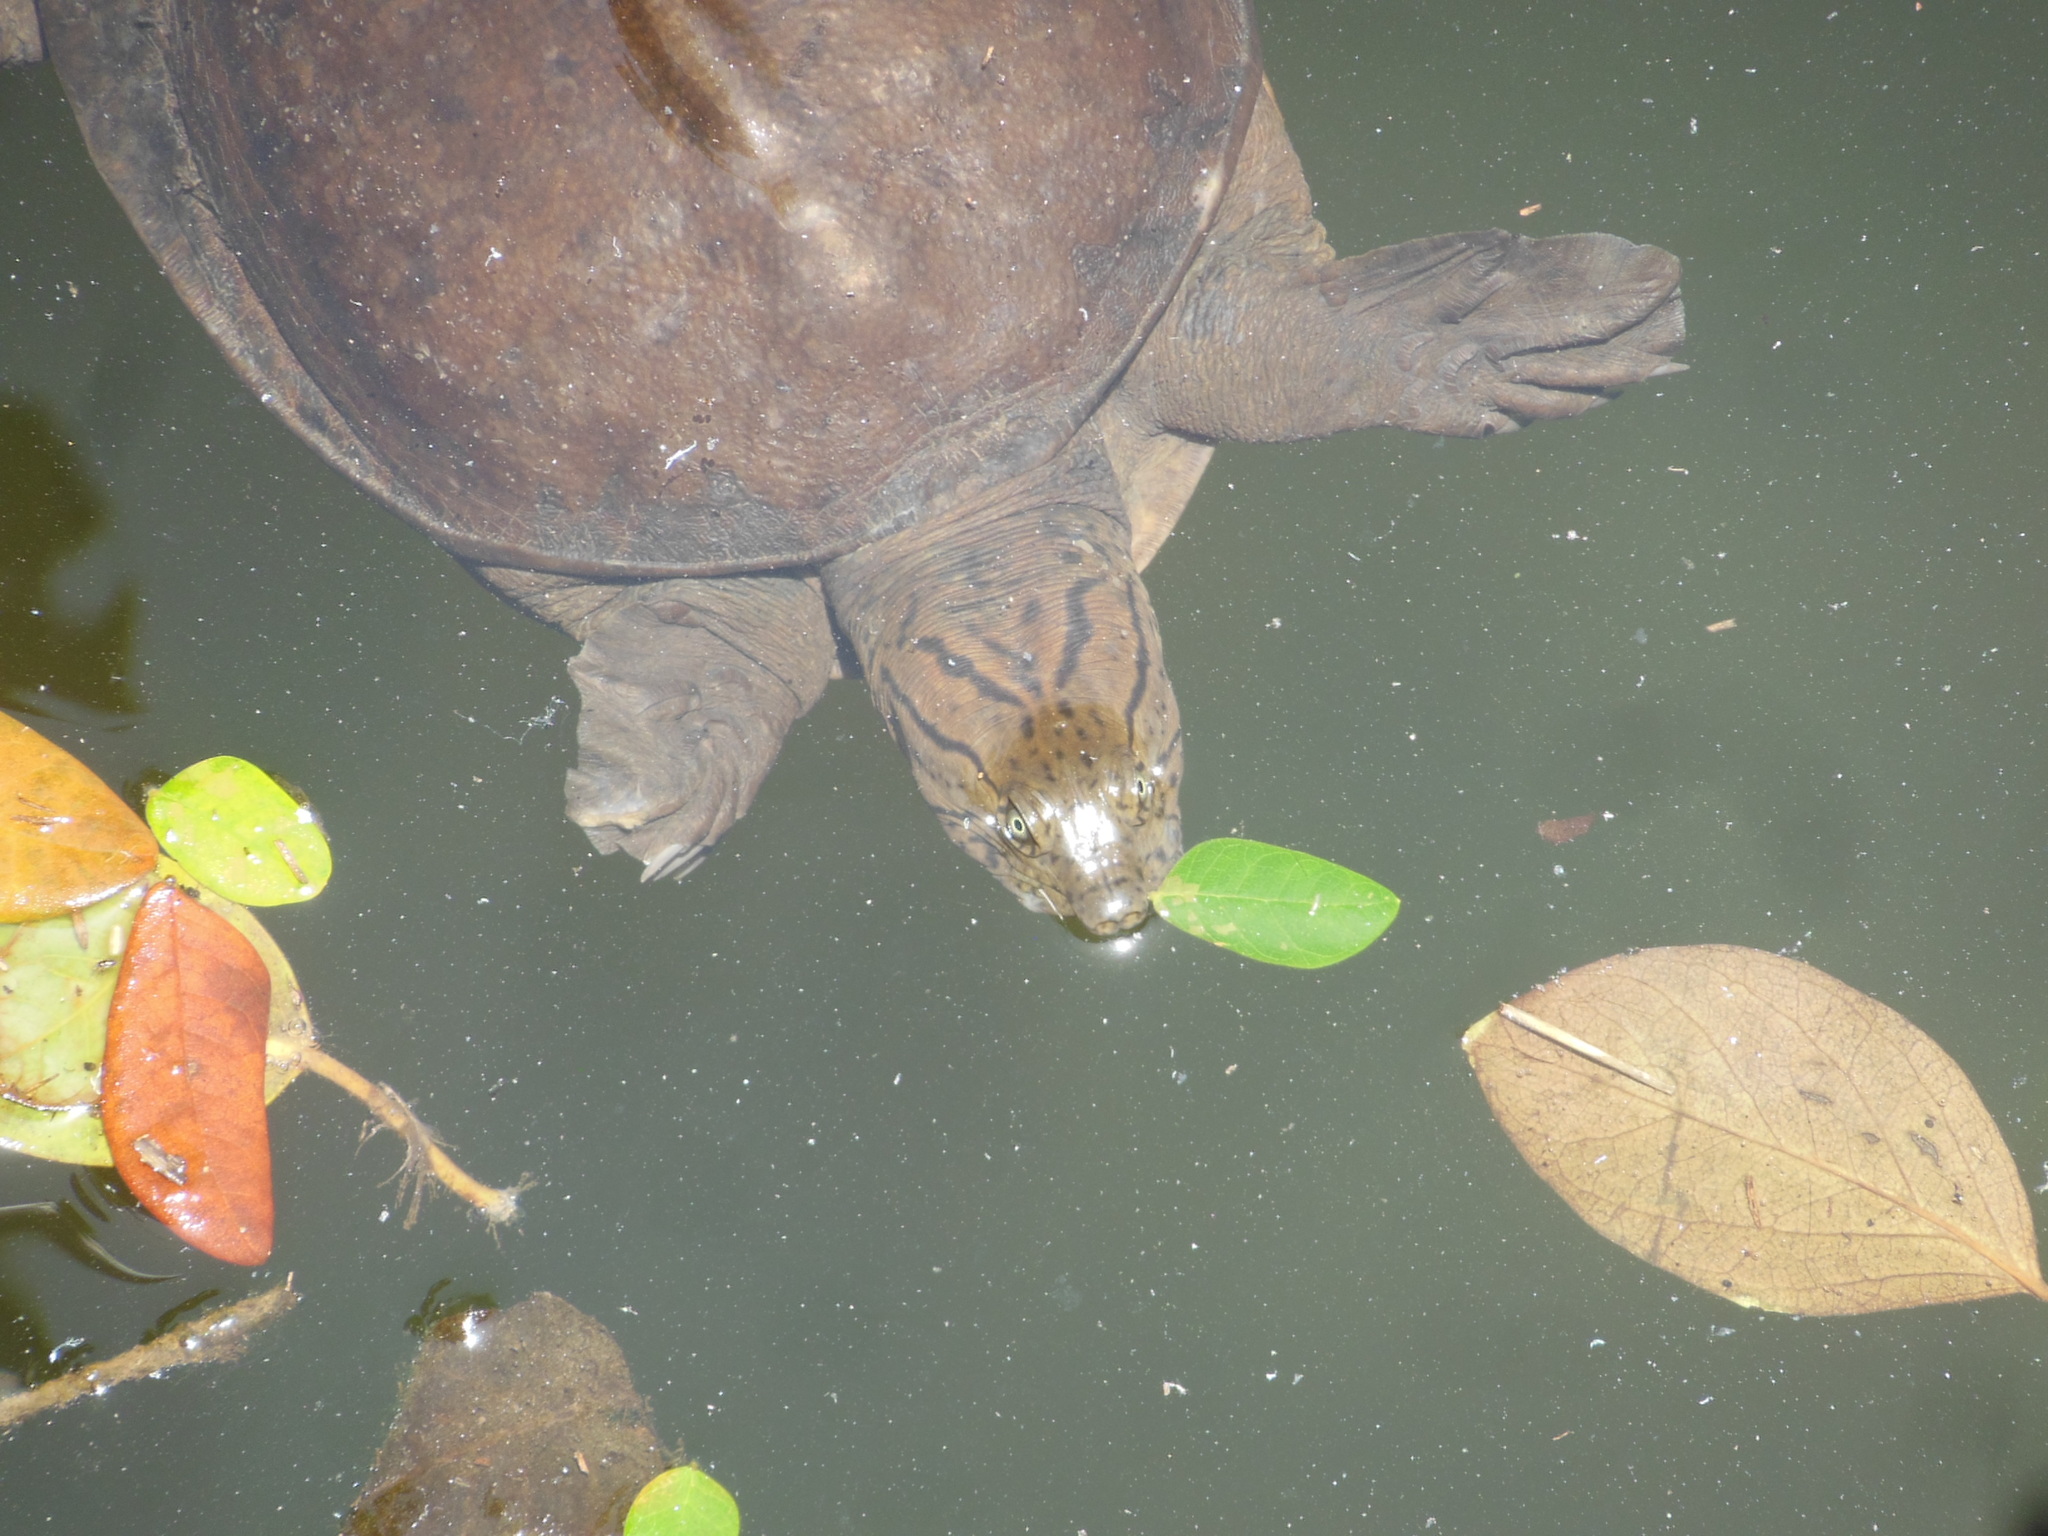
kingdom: Animalia
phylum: Chordata
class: Testudines
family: Trionychidae
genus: Lissemys
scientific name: Lissemys punctata
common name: Indian flap-shelled turtle
